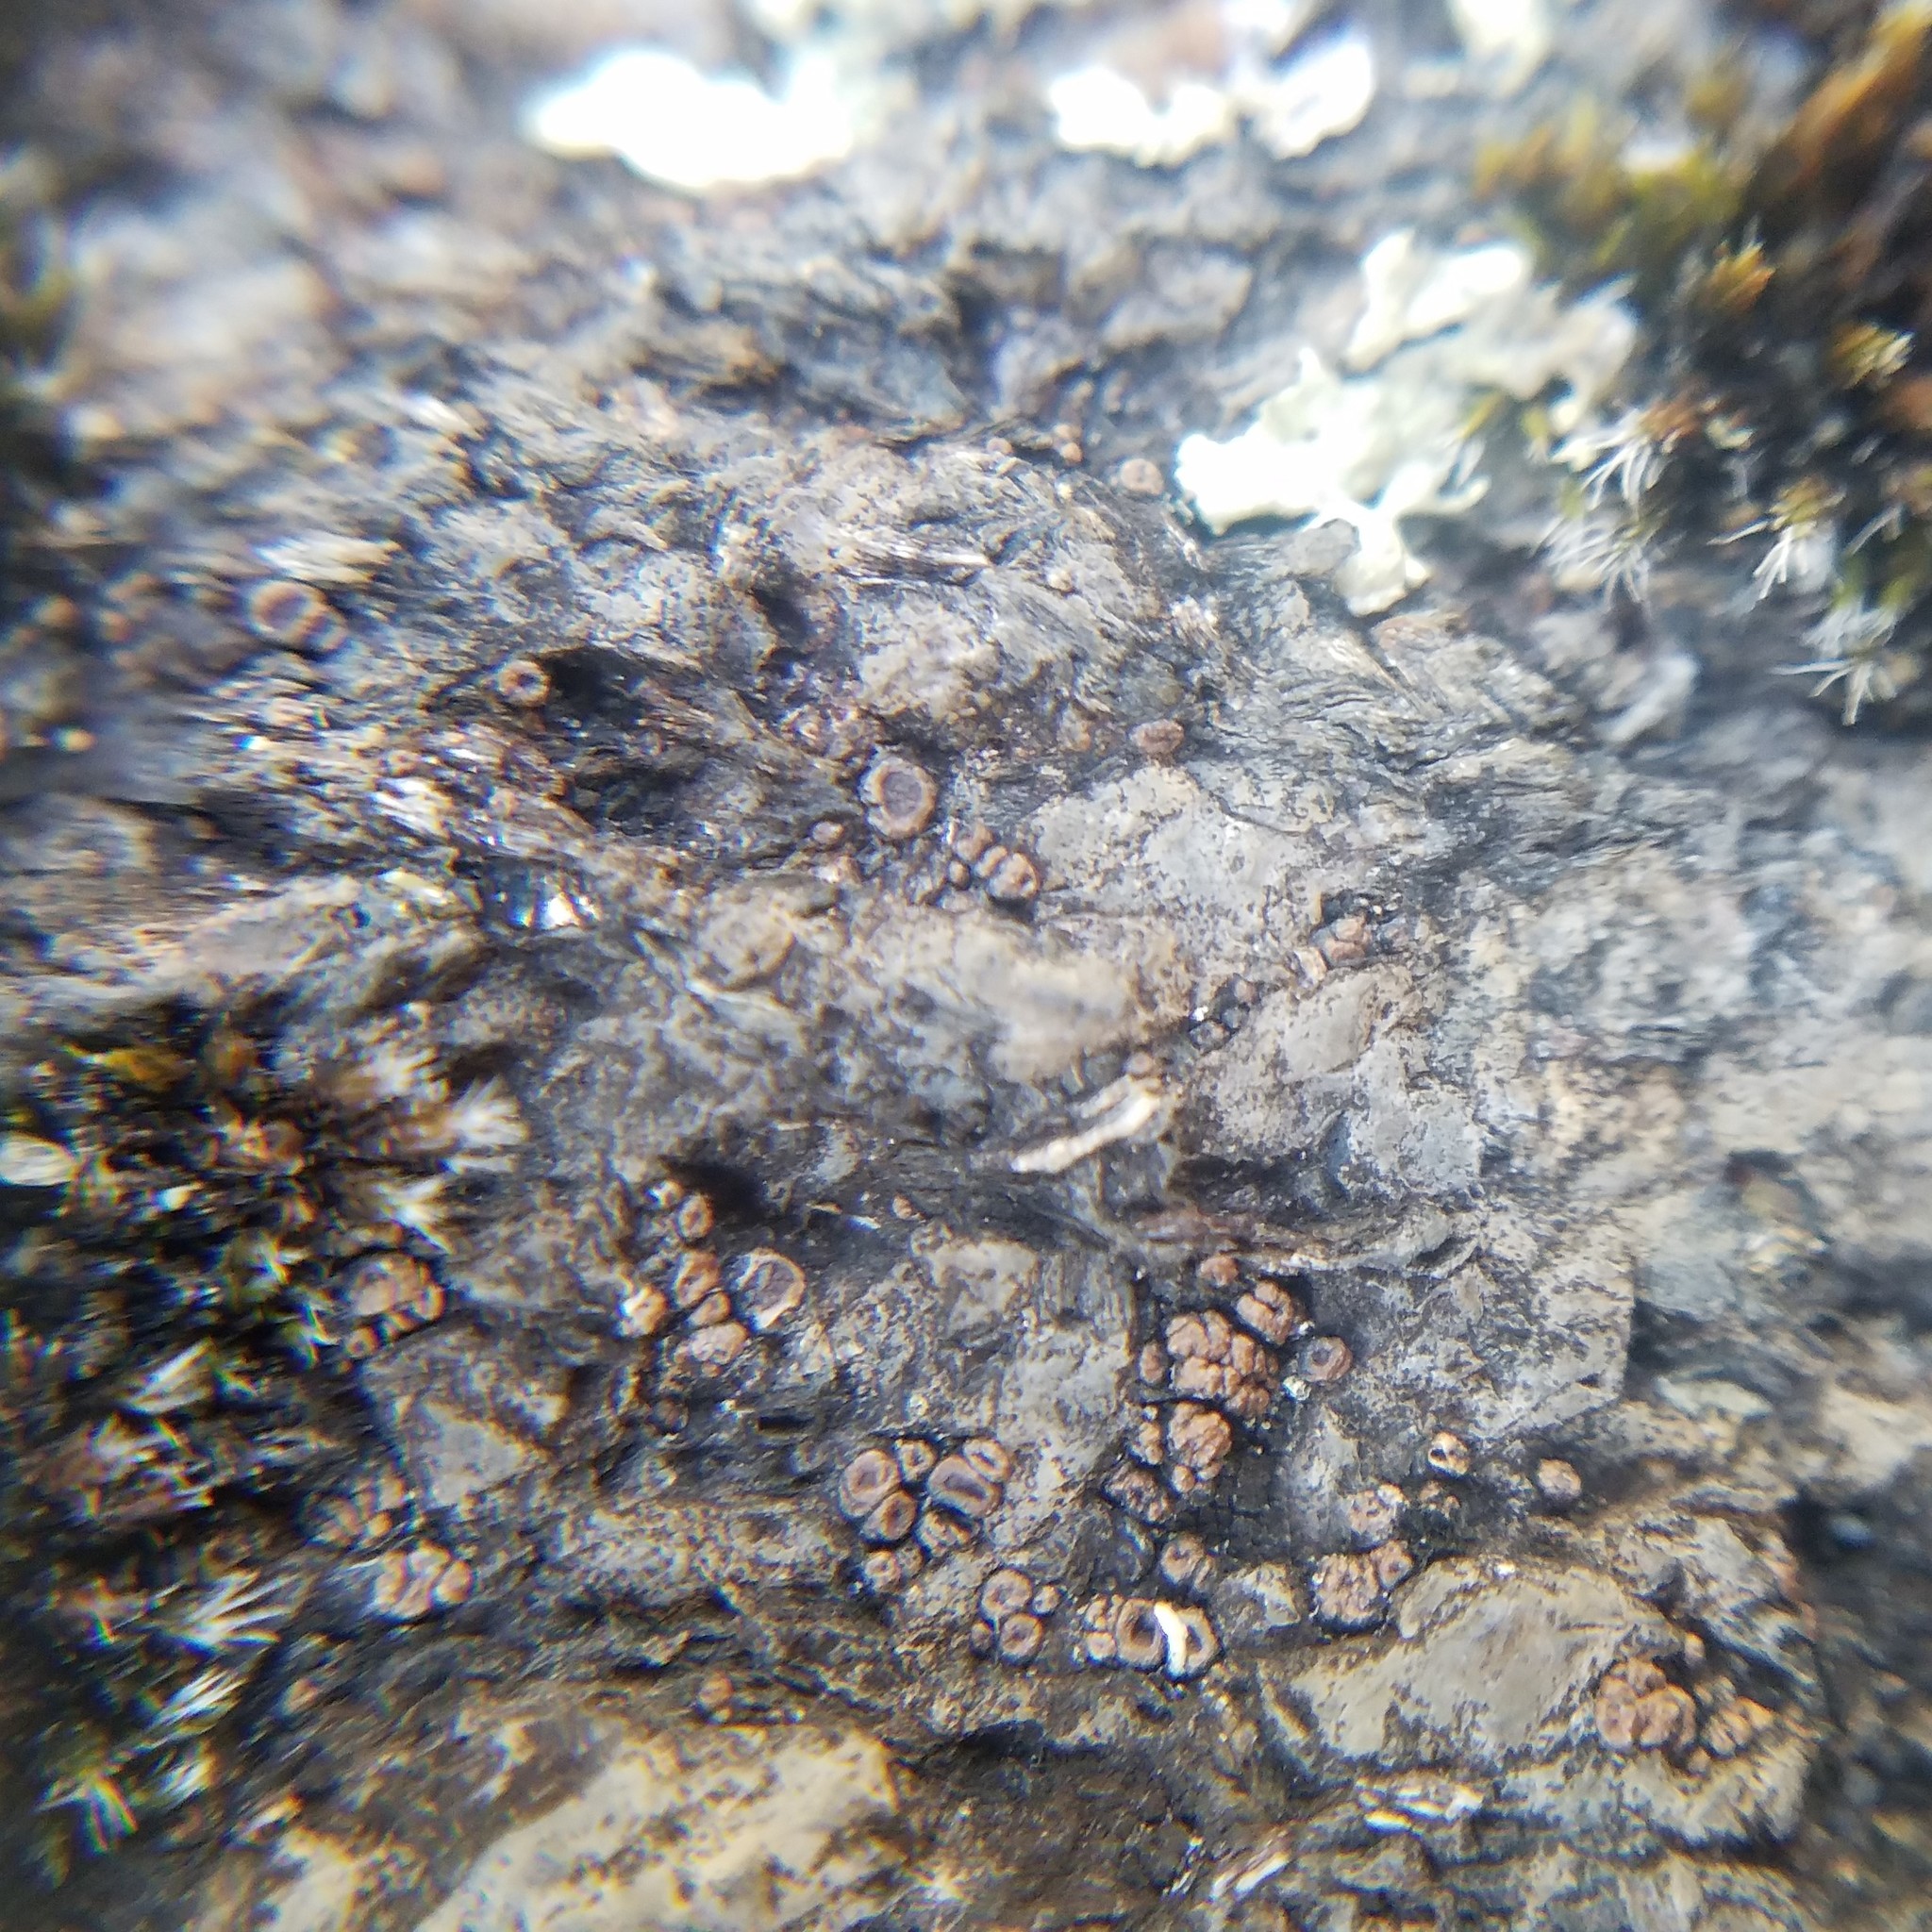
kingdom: Fungi
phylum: Ascomycota
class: Lecanoromycetes
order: Acarosporales
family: Acarosporaceae
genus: Acarospora
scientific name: Acarospora janae
